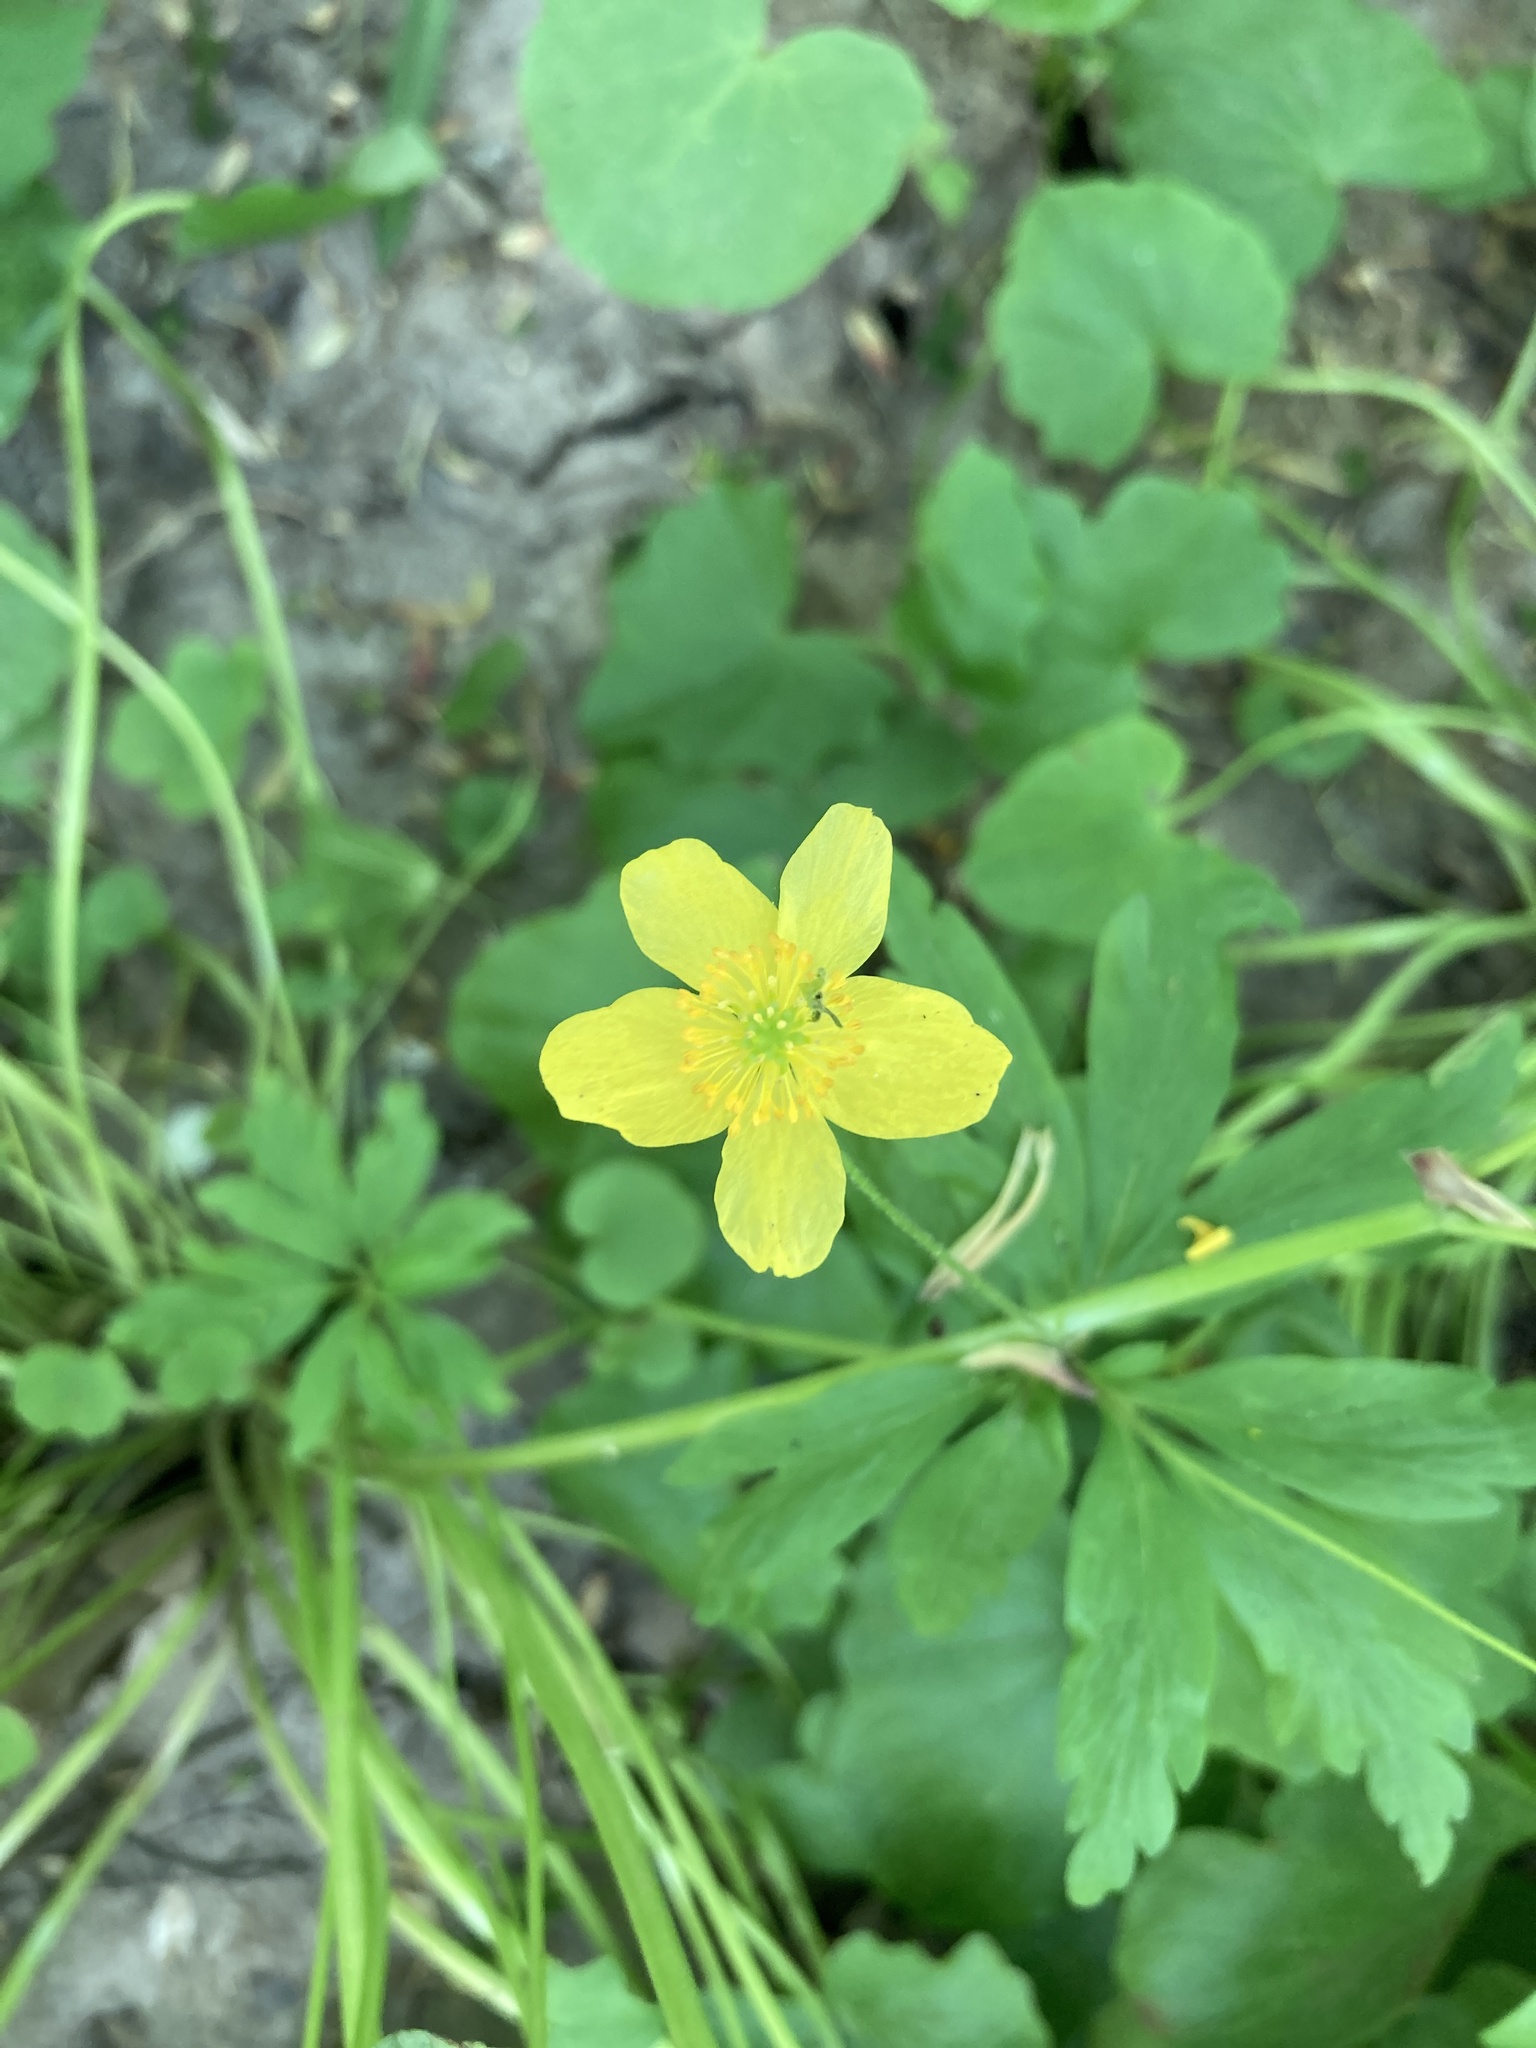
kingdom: Plantae
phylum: Tracheophyta
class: Magnoliopsida
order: Ranunculales
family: Ranunculaceae
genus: Anemone
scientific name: Anemone ranunculoides
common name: Yellow anemone
